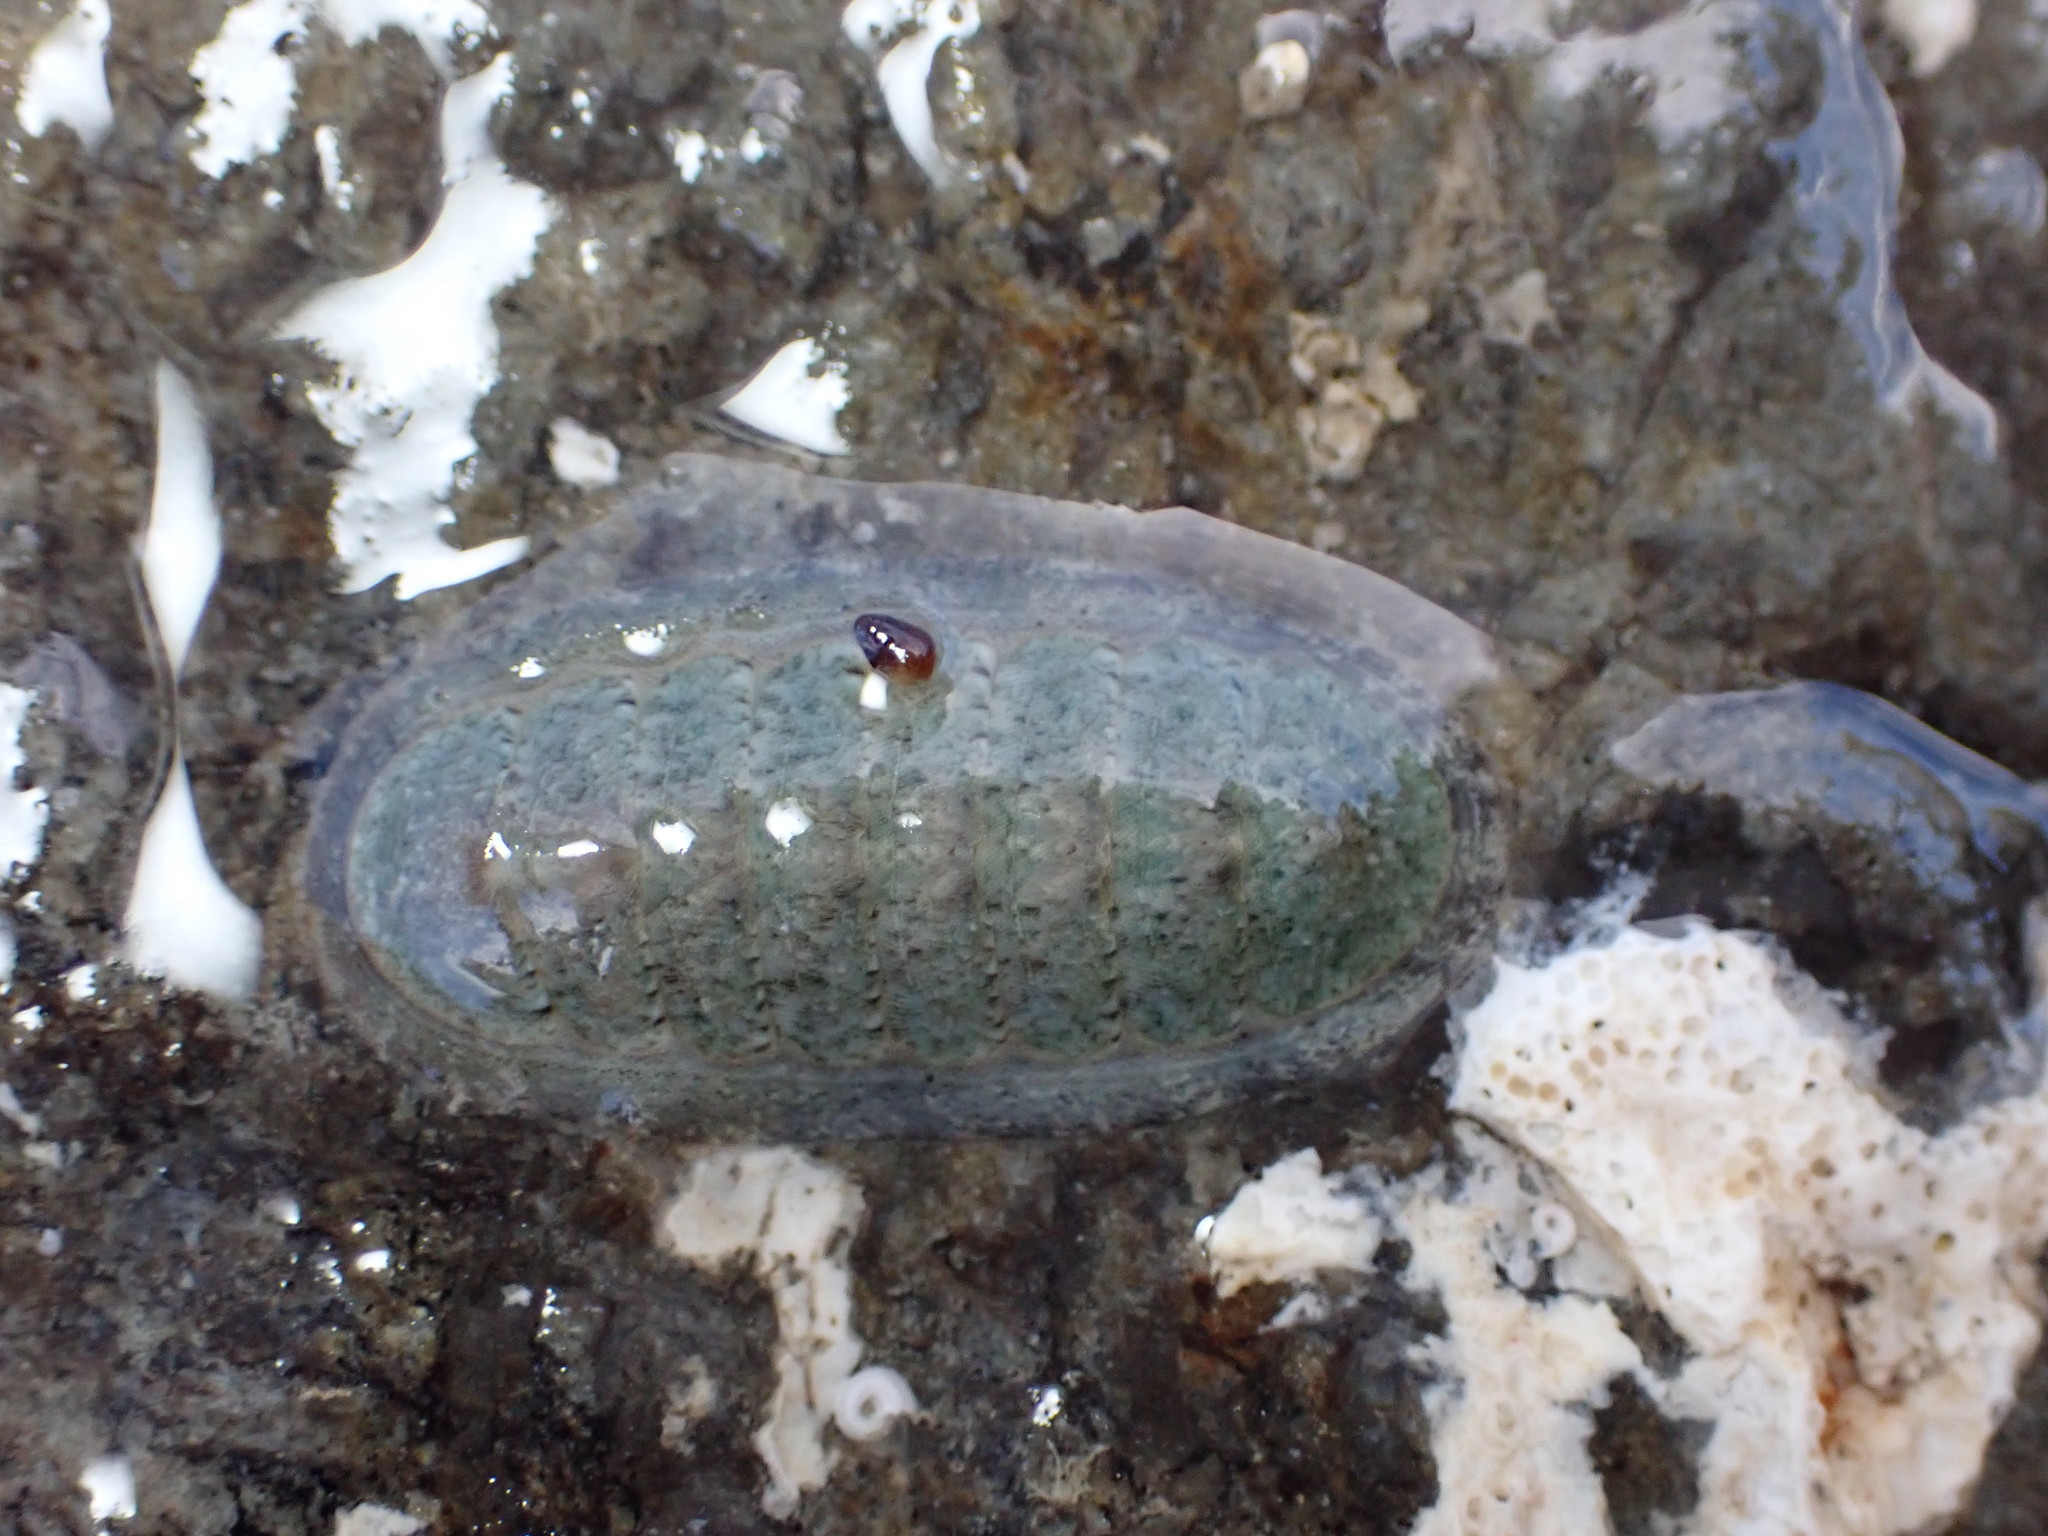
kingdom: Animalia
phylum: Mollusca
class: Polyplacophora
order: Chitonida
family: Ischnochitonidae
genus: Ischnochiton
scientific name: Ischnochiton maorianus
